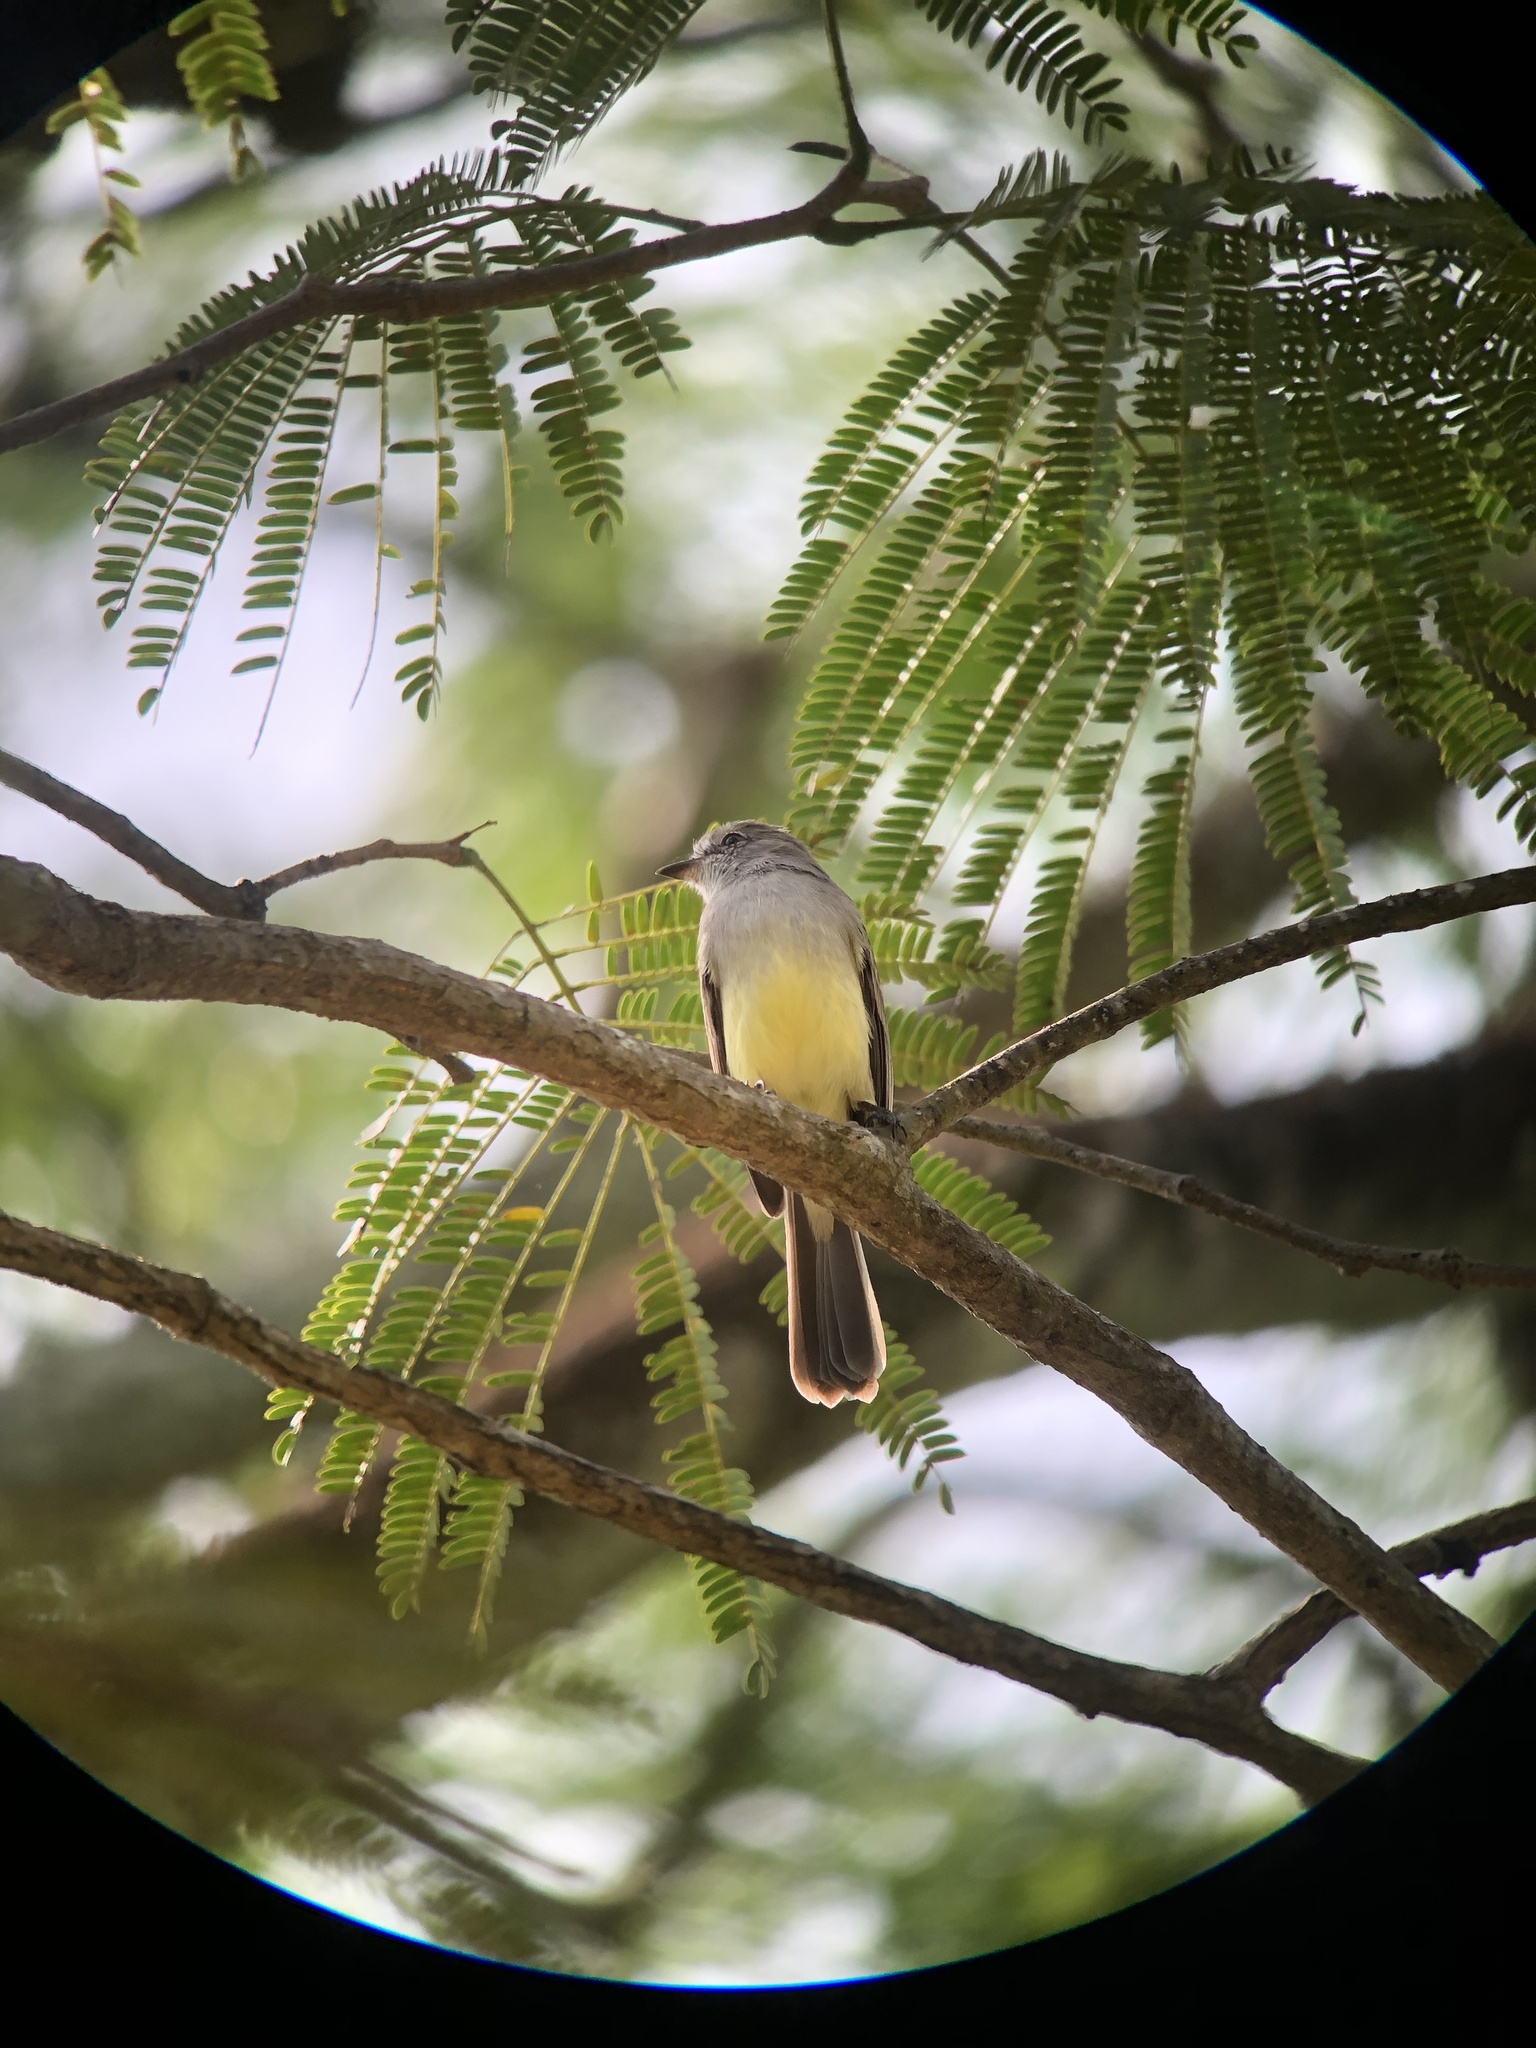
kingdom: Animalia
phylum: Chordata
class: Aves
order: Passeriformes
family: Tyrannidae
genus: Sublegatus
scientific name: Sublegatus arenarum
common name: Northern scrub-flycatcher
